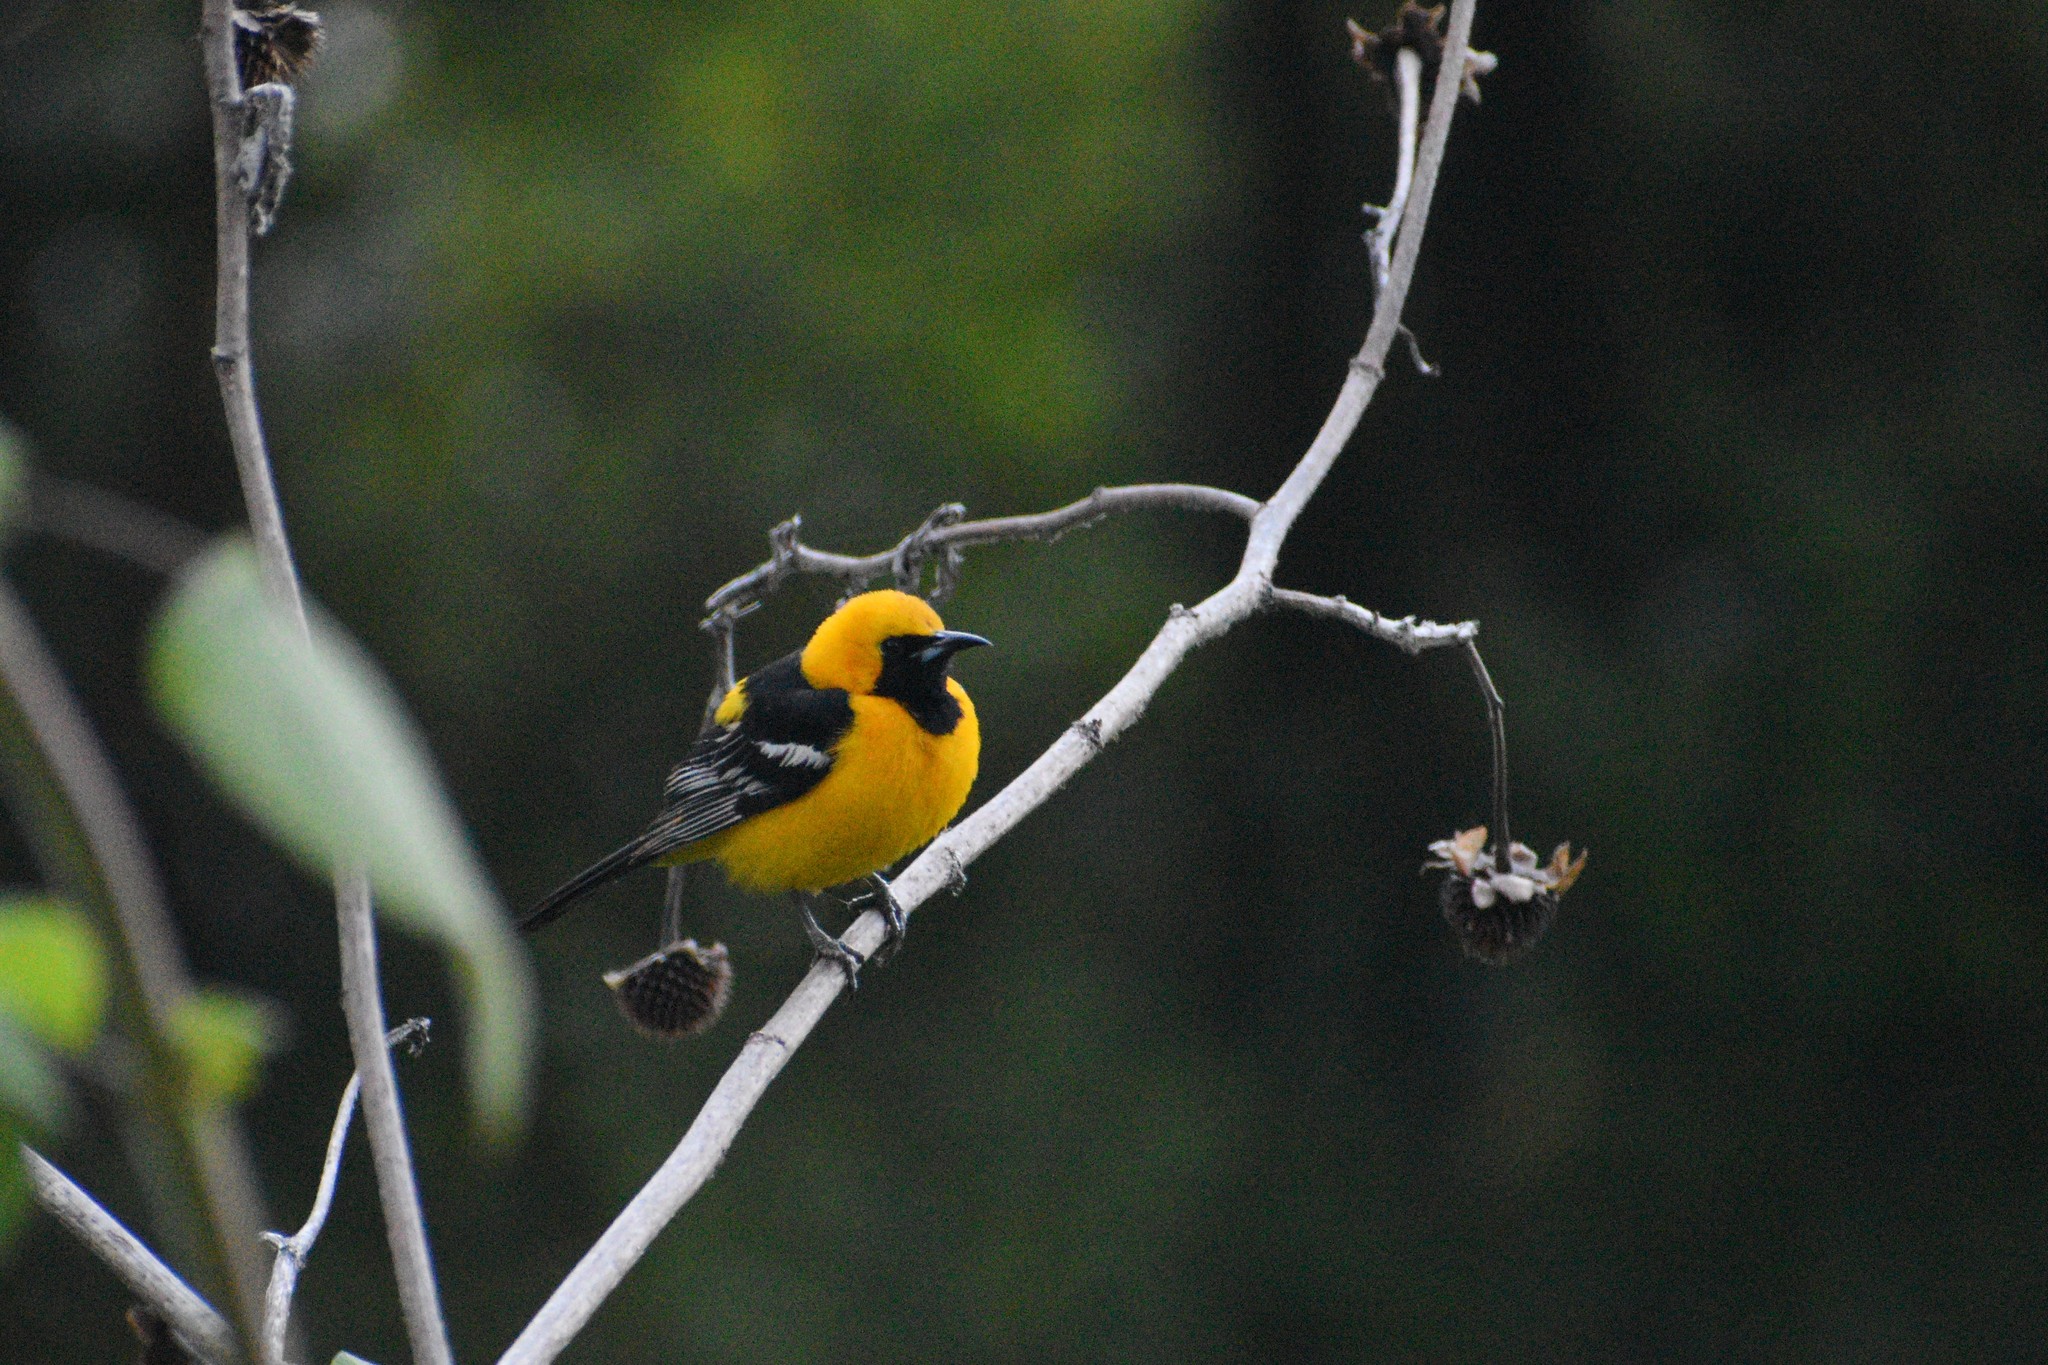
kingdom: Animalia
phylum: Chordata
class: Aves
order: Passeriformes
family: Icteridae
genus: Icterus
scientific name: Icterus cucullatus
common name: Hooded oriole
